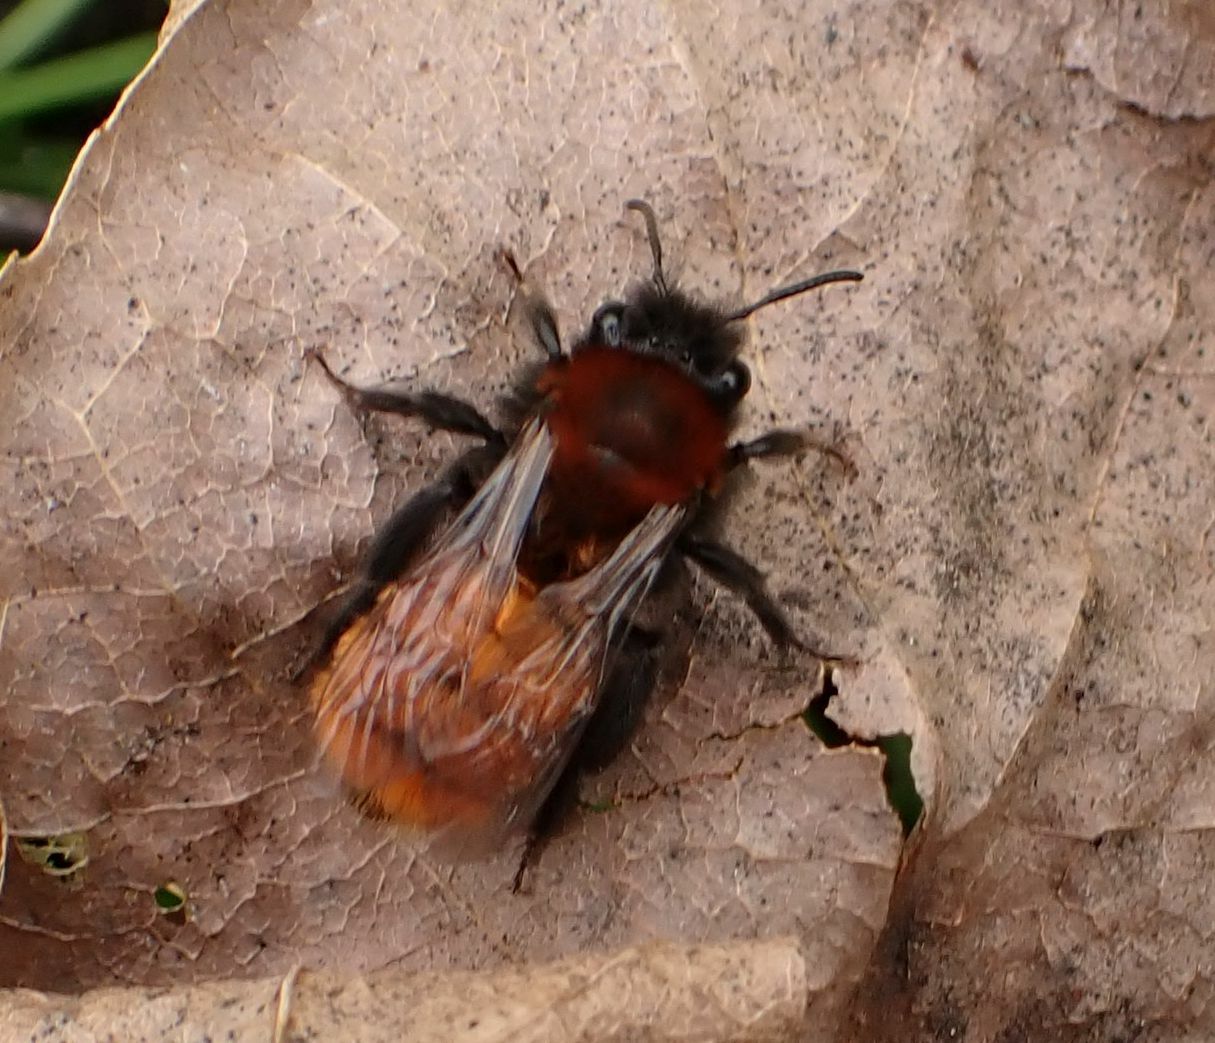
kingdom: Animalia
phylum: Arthropoda
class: Insecta
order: Hymenoptera
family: Andrenidae
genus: Andrena
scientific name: Andrena fulva
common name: Tawny mining bee
